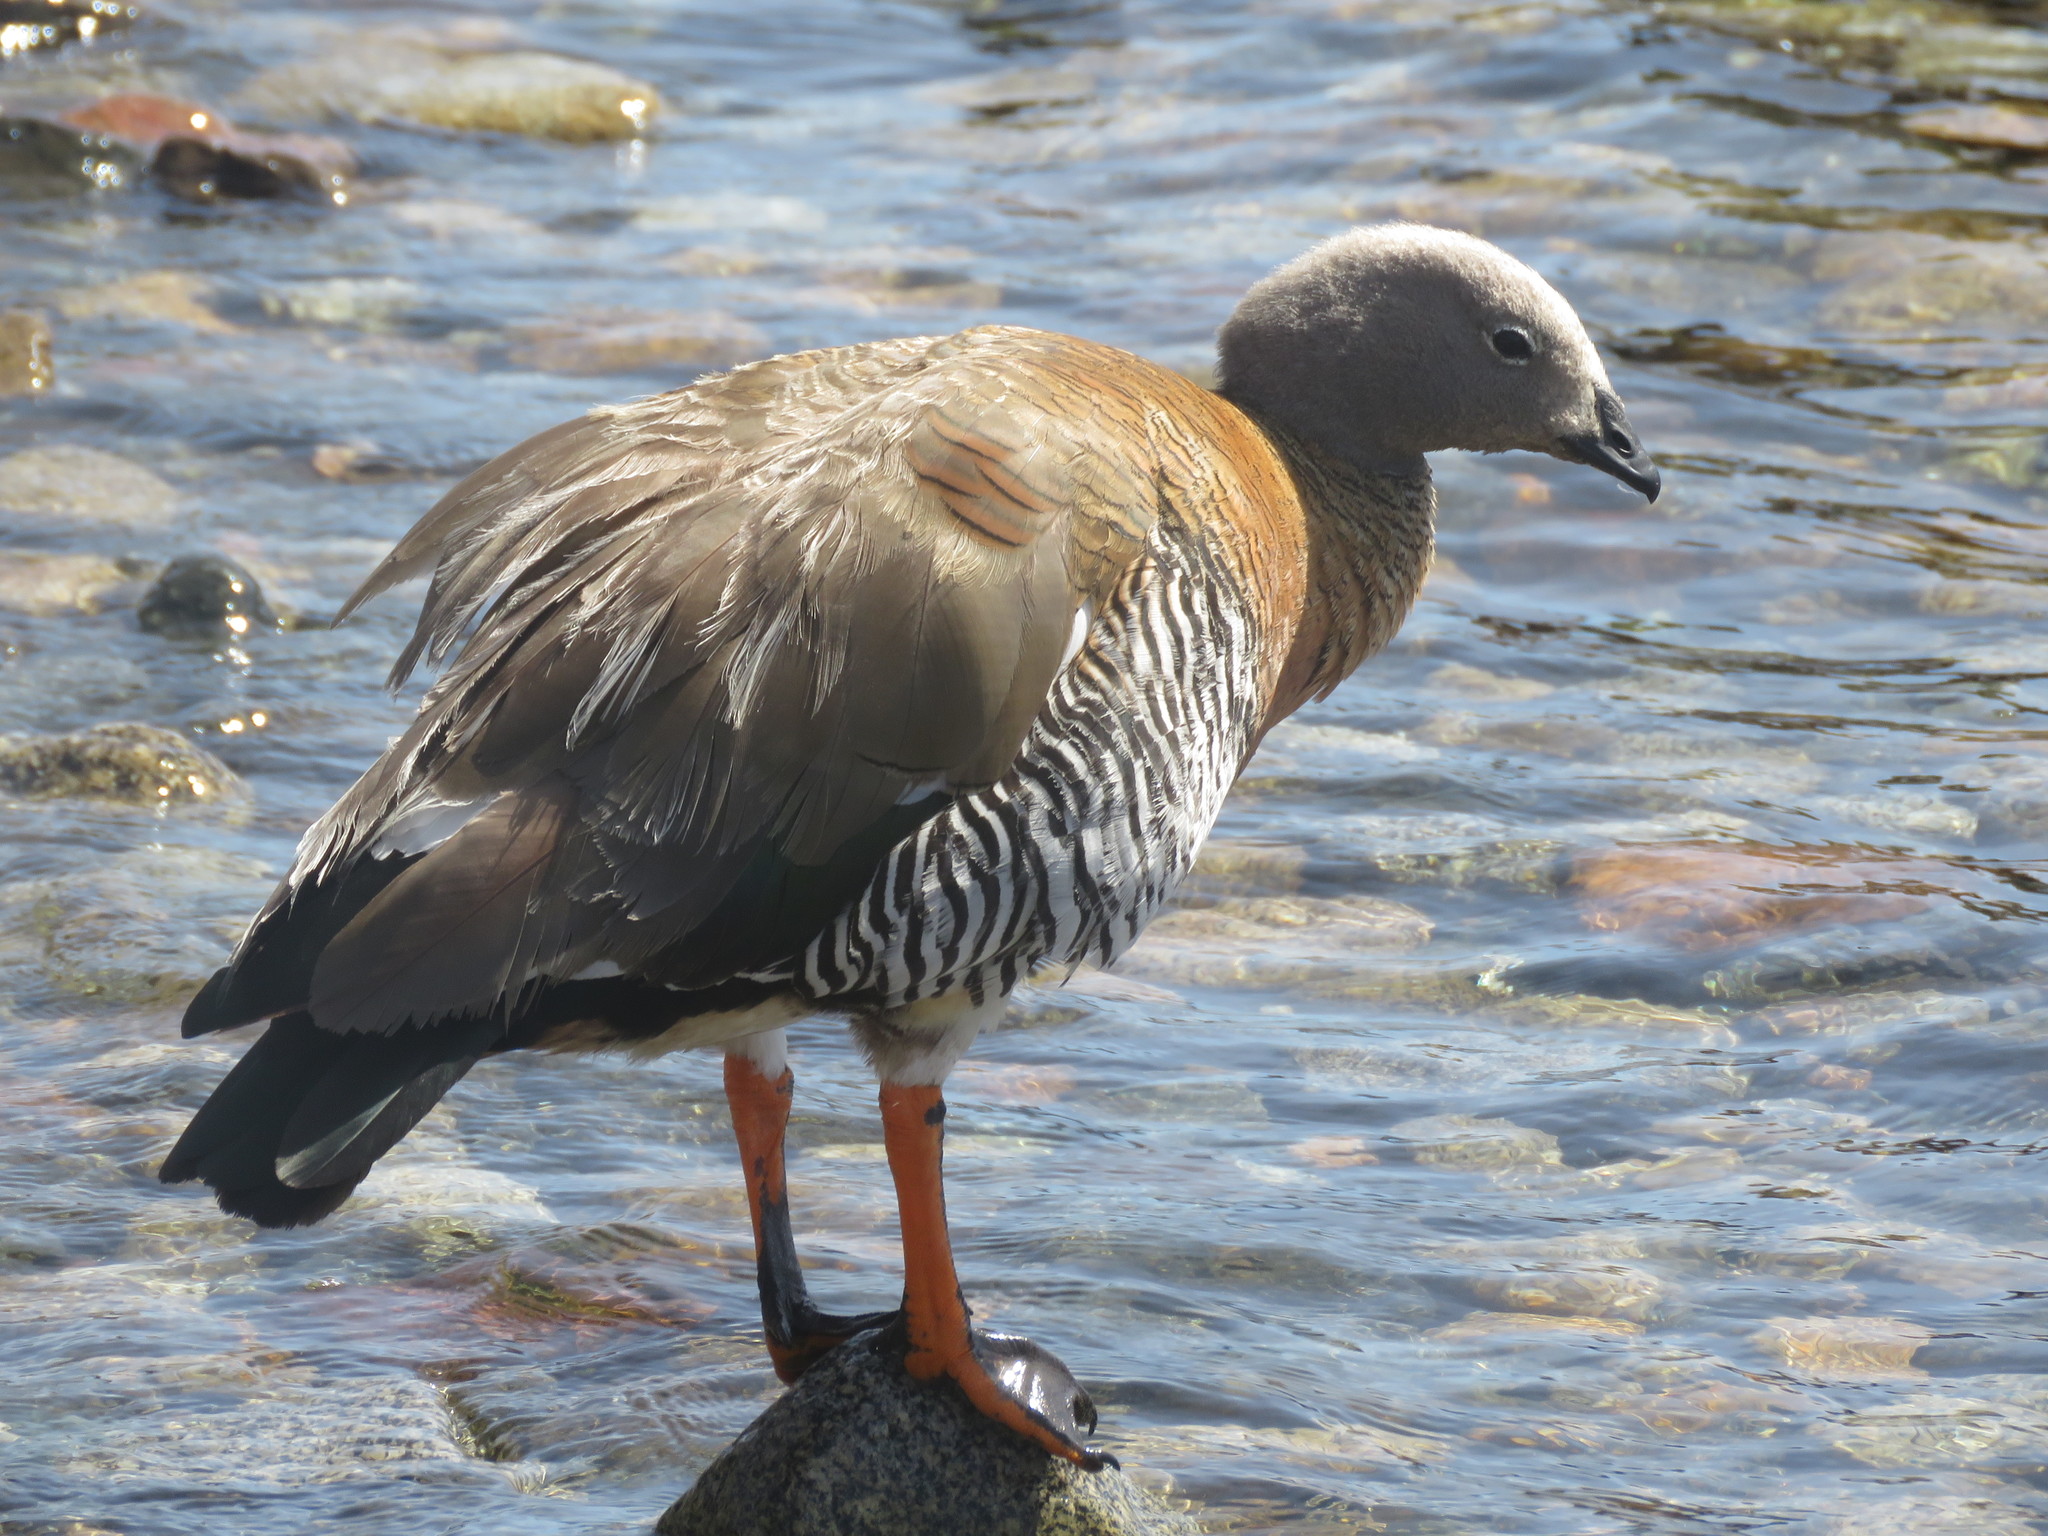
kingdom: Animalia
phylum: Chordata
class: Aves
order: Anseriformes
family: Anatidae
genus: Chloephaga
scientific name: Chloephaga poliocephala
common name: Ashy-headed goose
